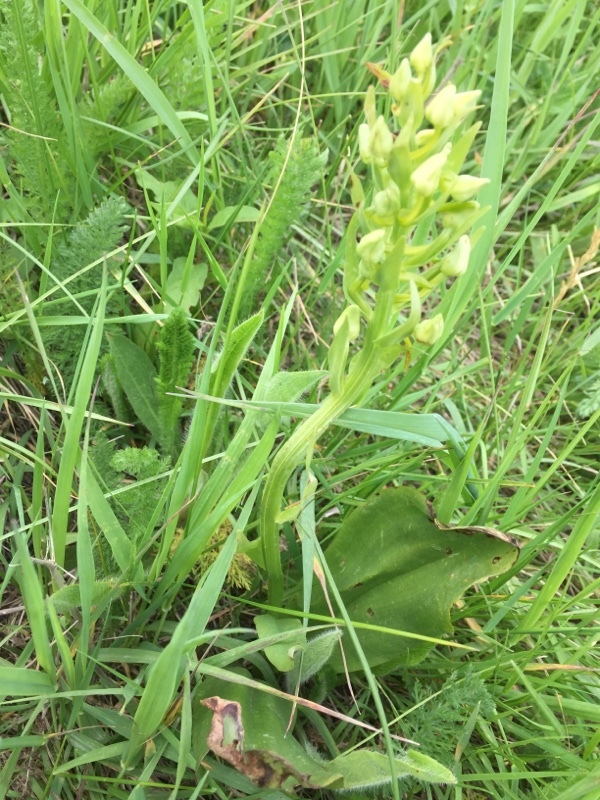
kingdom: Plantae
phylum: Tracheophyta
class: Liliopsida
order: Asparagales
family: Orchidaceae
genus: Platanthera
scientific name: Platanthera chlorantha
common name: Greater butterfly-orchid
